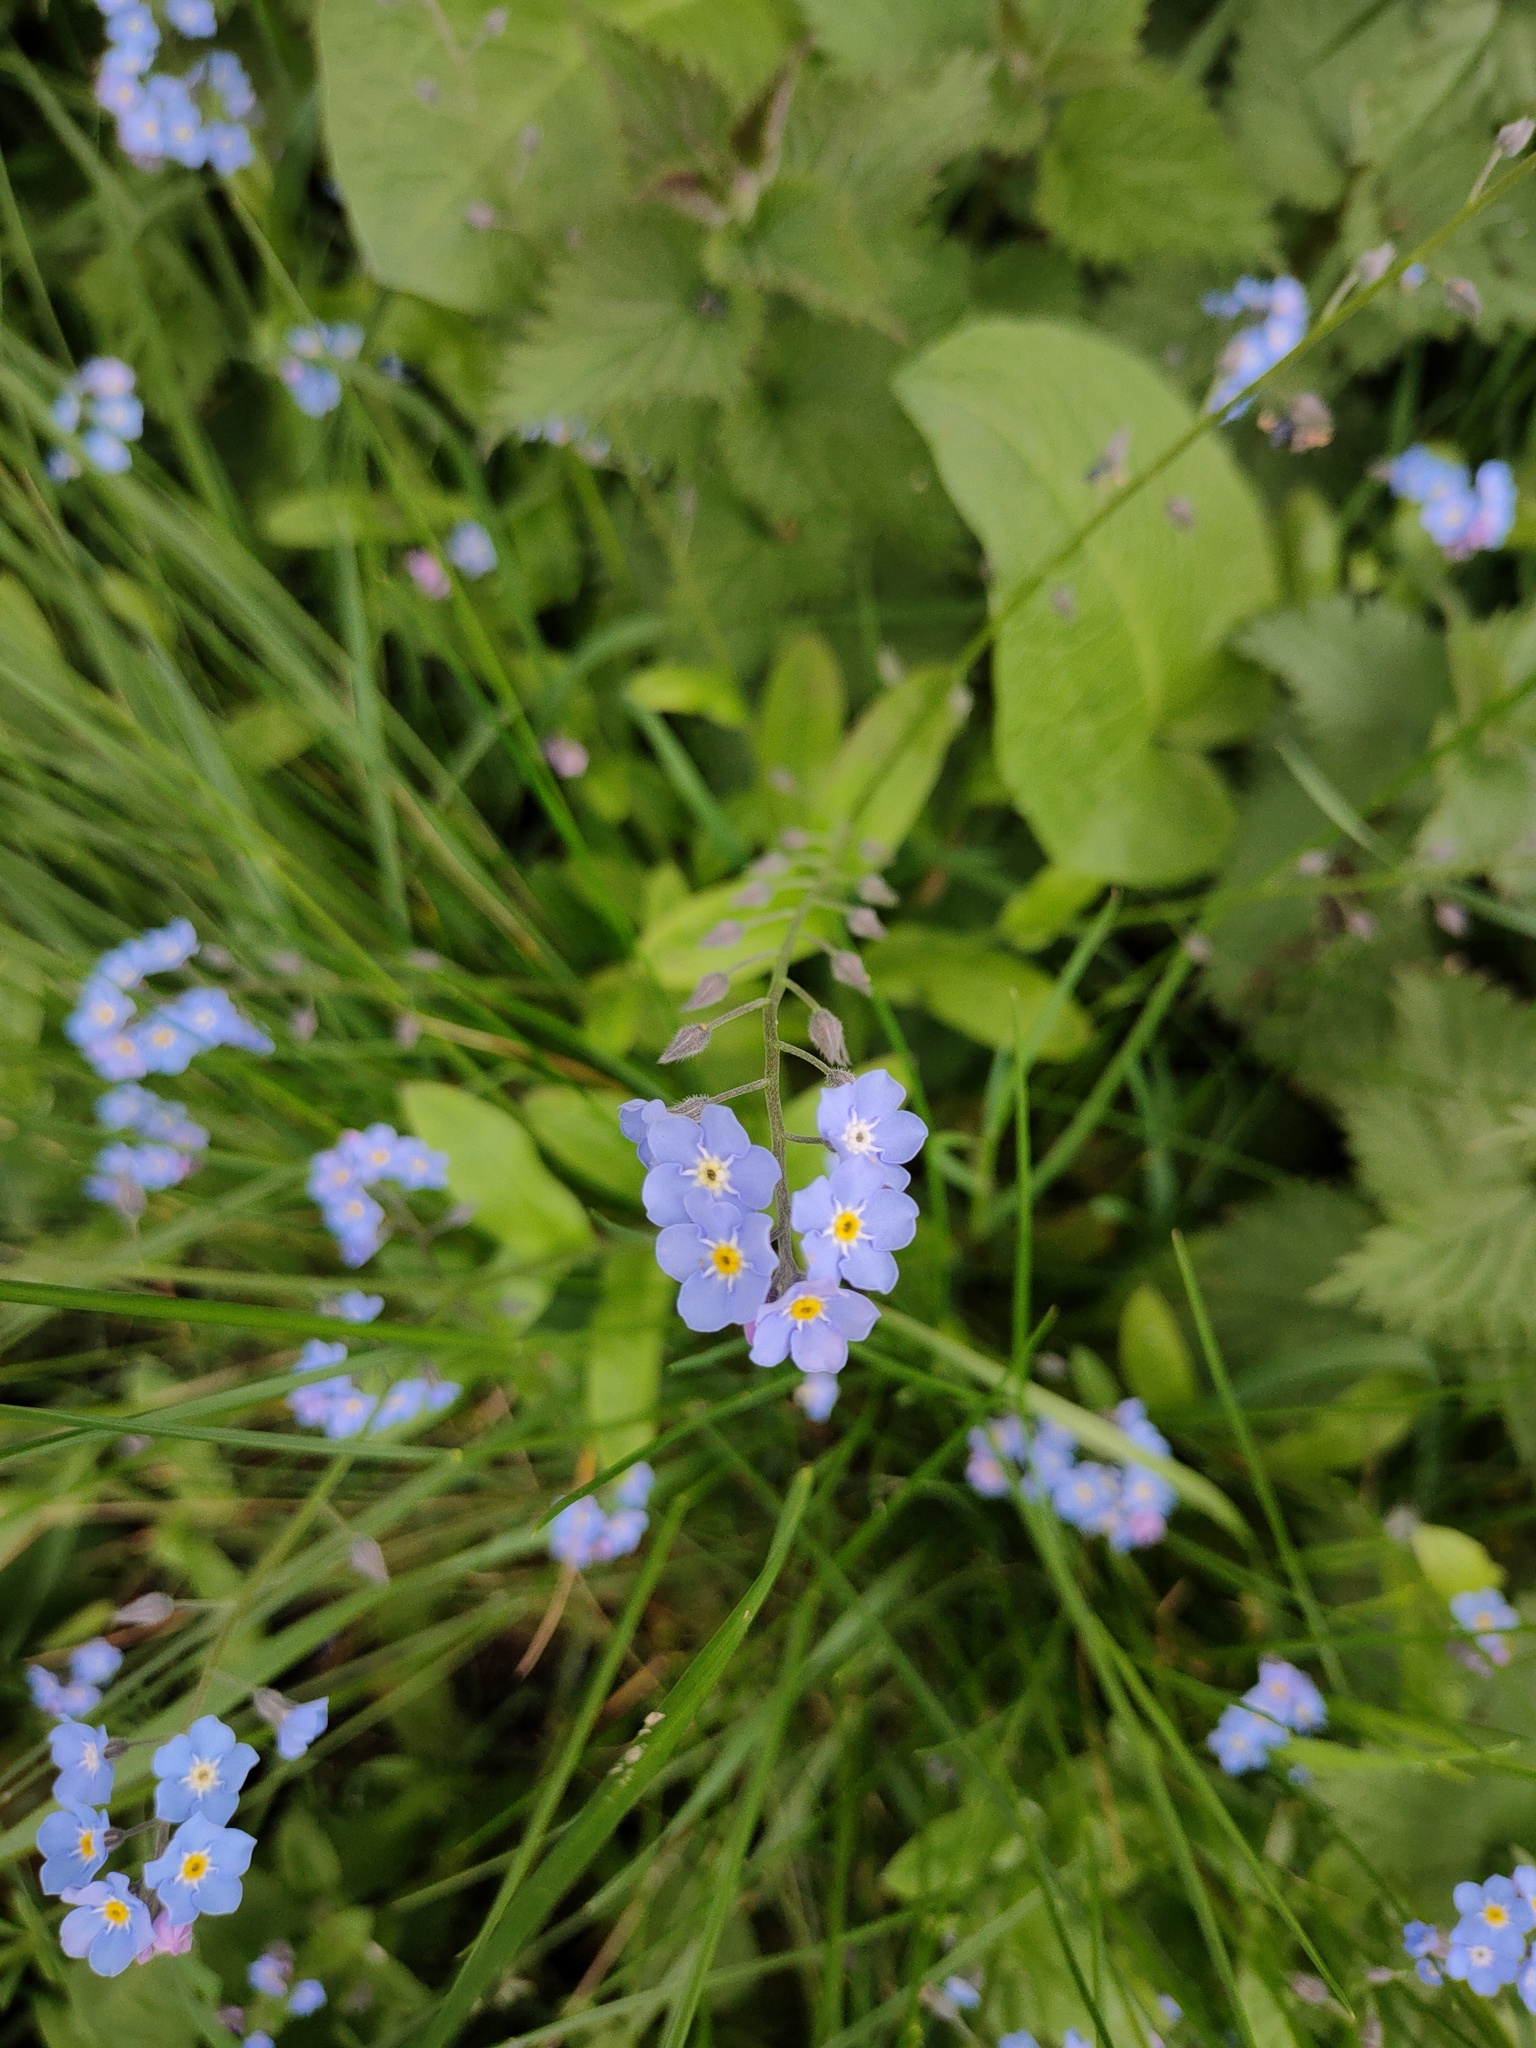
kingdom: Plantae
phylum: Tracheophyta
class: Magnoliopsida
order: Boraginales
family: Boraginaceae
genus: Myosotis
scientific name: Myosotis sylvatica
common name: Wood forget-me-not
